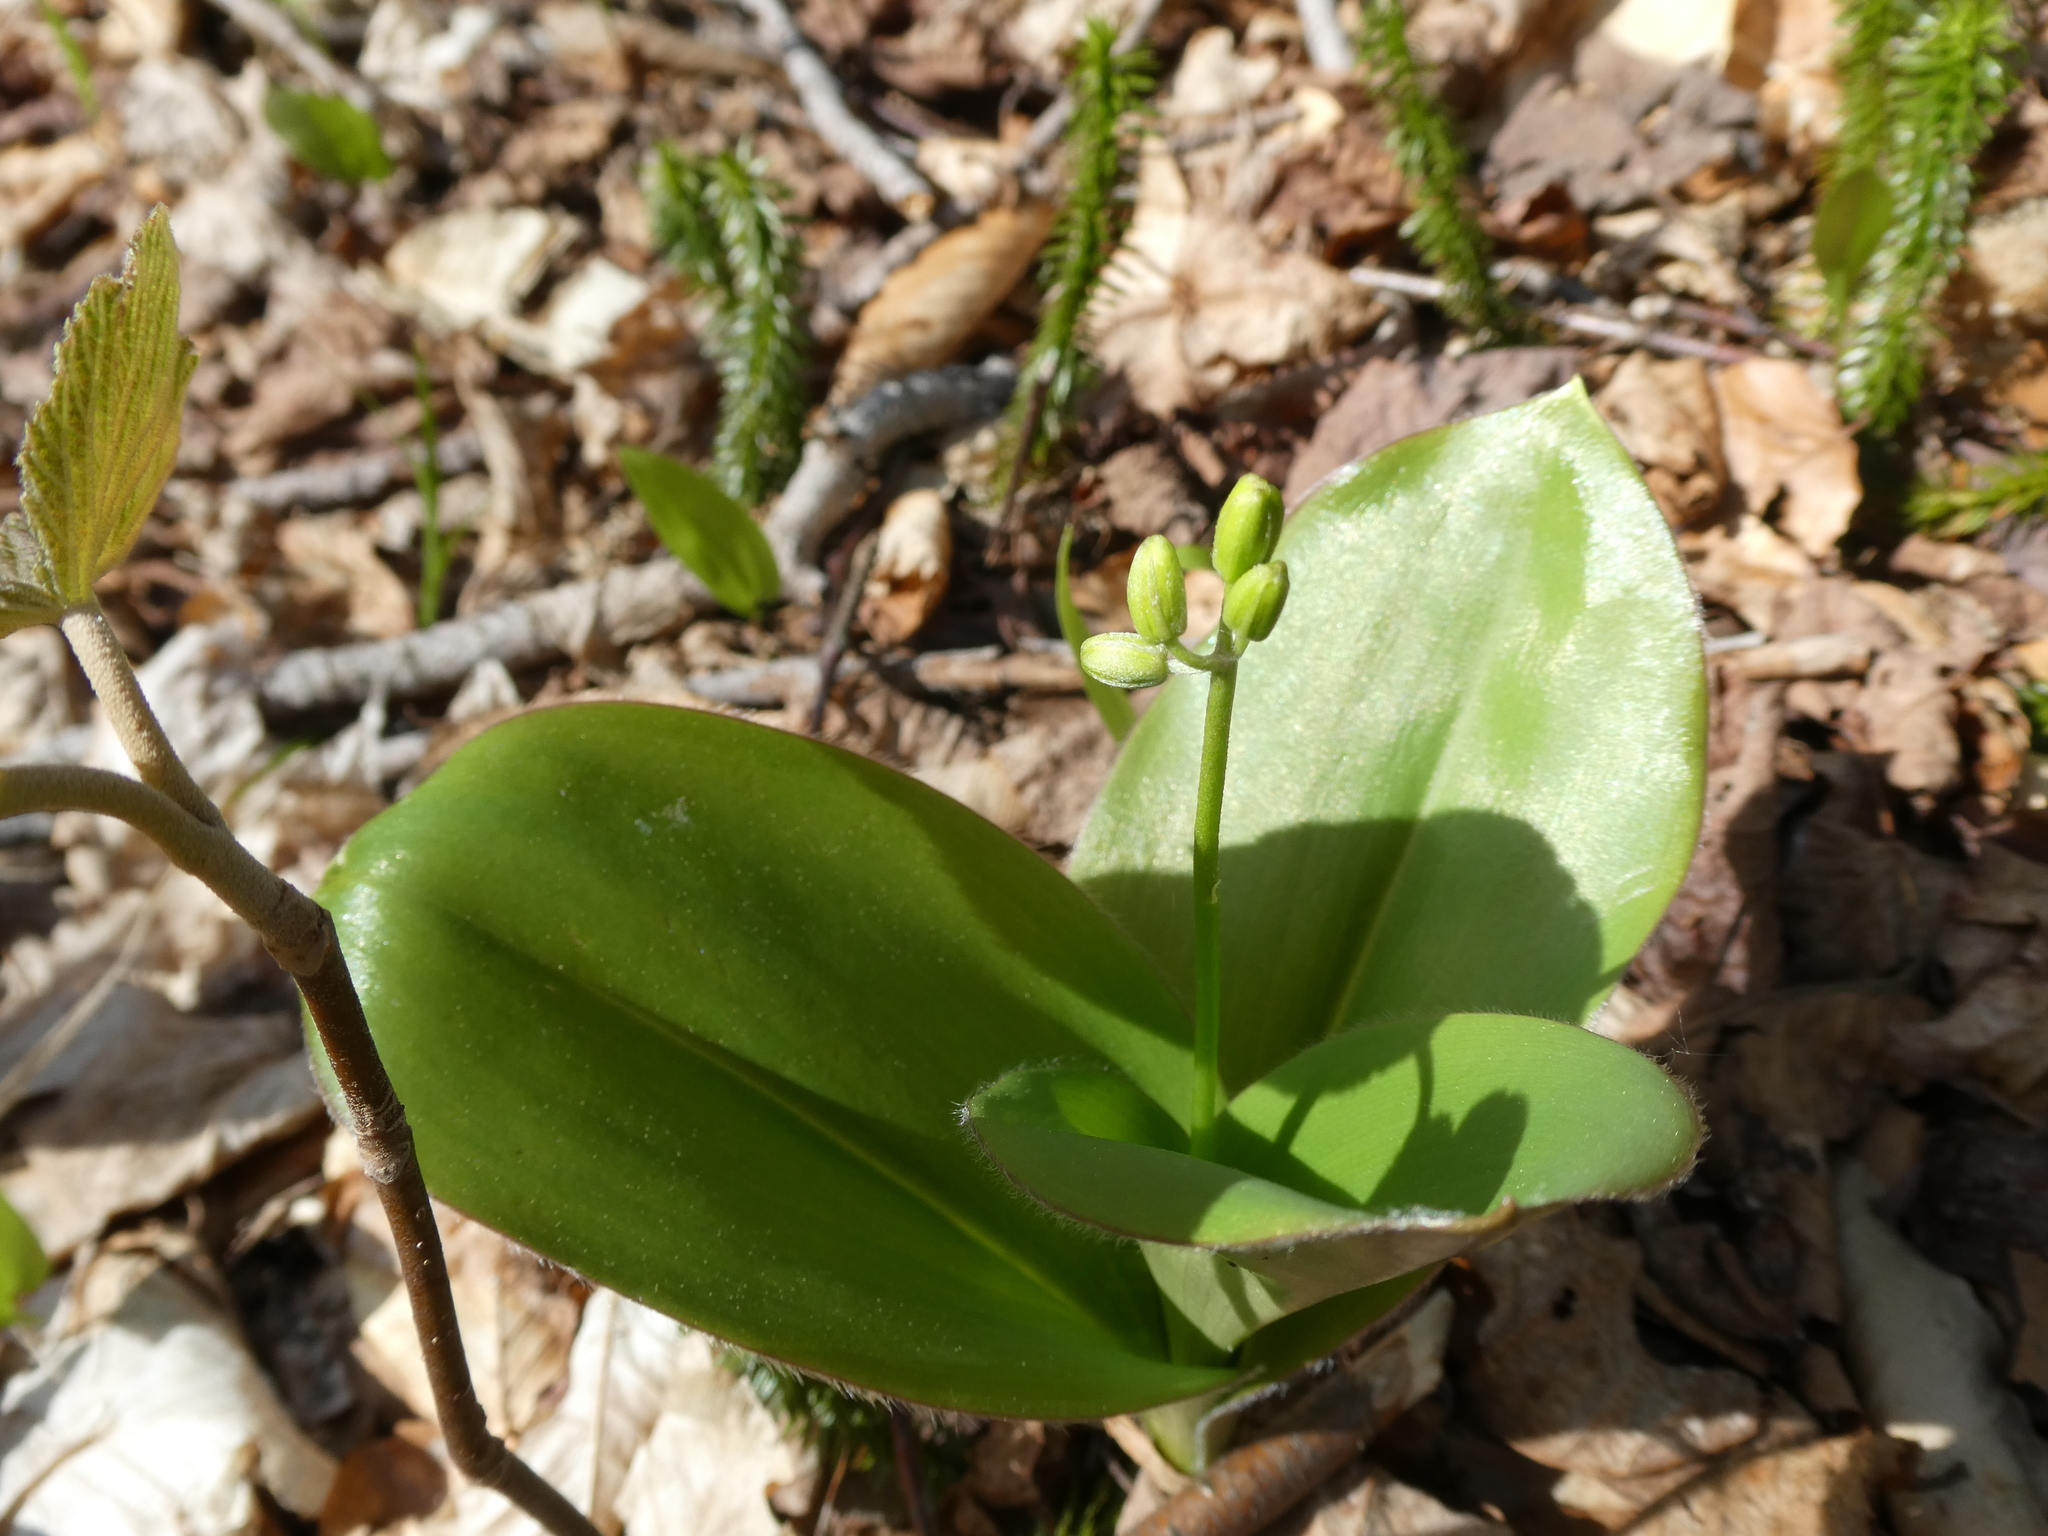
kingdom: Plantae
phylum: Tracheophyta
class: Liliopsida
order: Liliales
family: Liliaceae
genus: Clintonia
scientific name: Clintonia borealis
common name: Yellow clintonia
